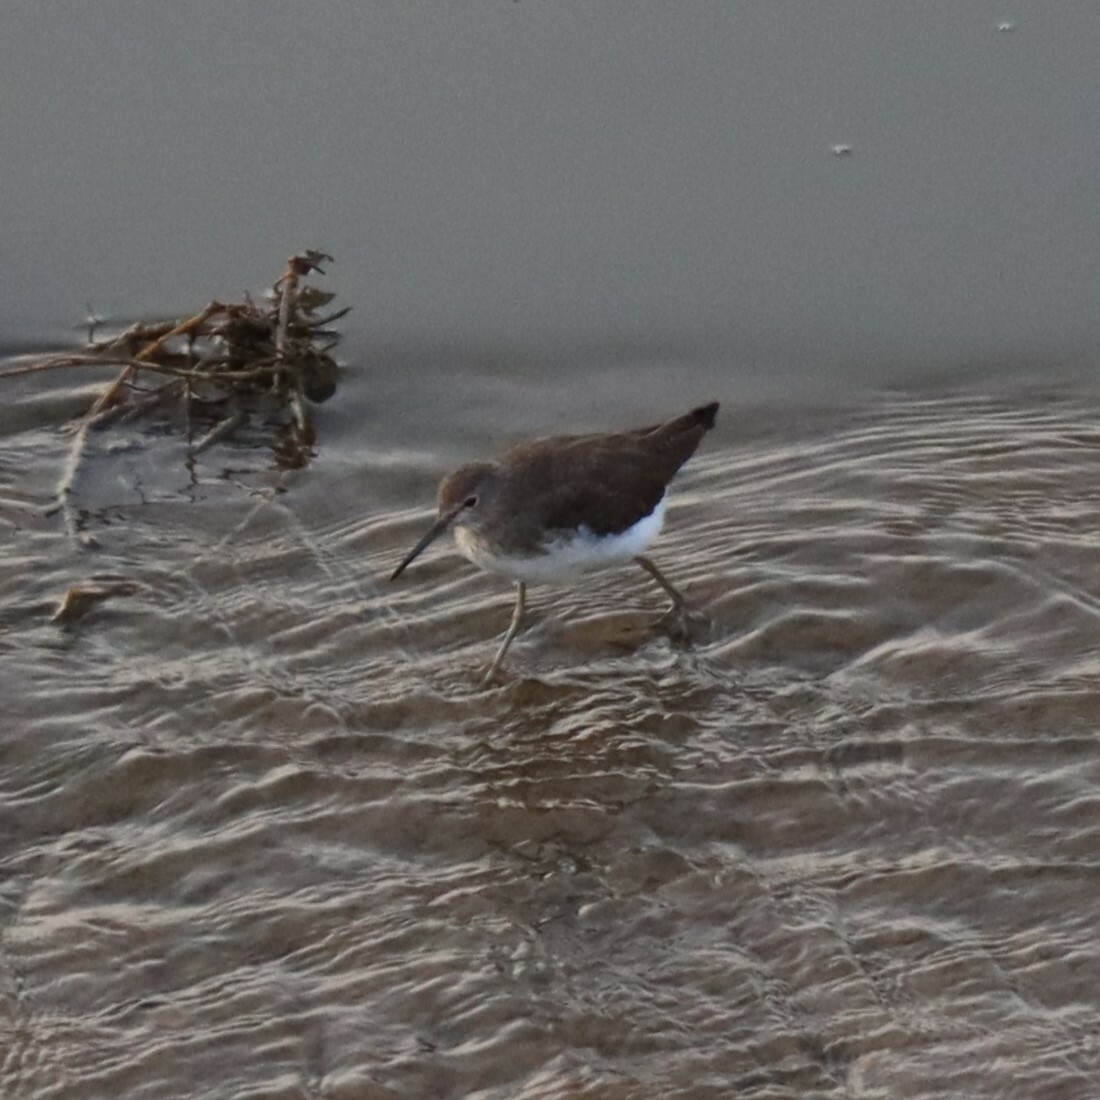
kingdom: Animalia
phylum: Chordata
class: Aves
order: Charadriiformes
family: Scolopacidae
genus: Tringa
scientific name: Tringa ochropus
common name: Green sandpiper
